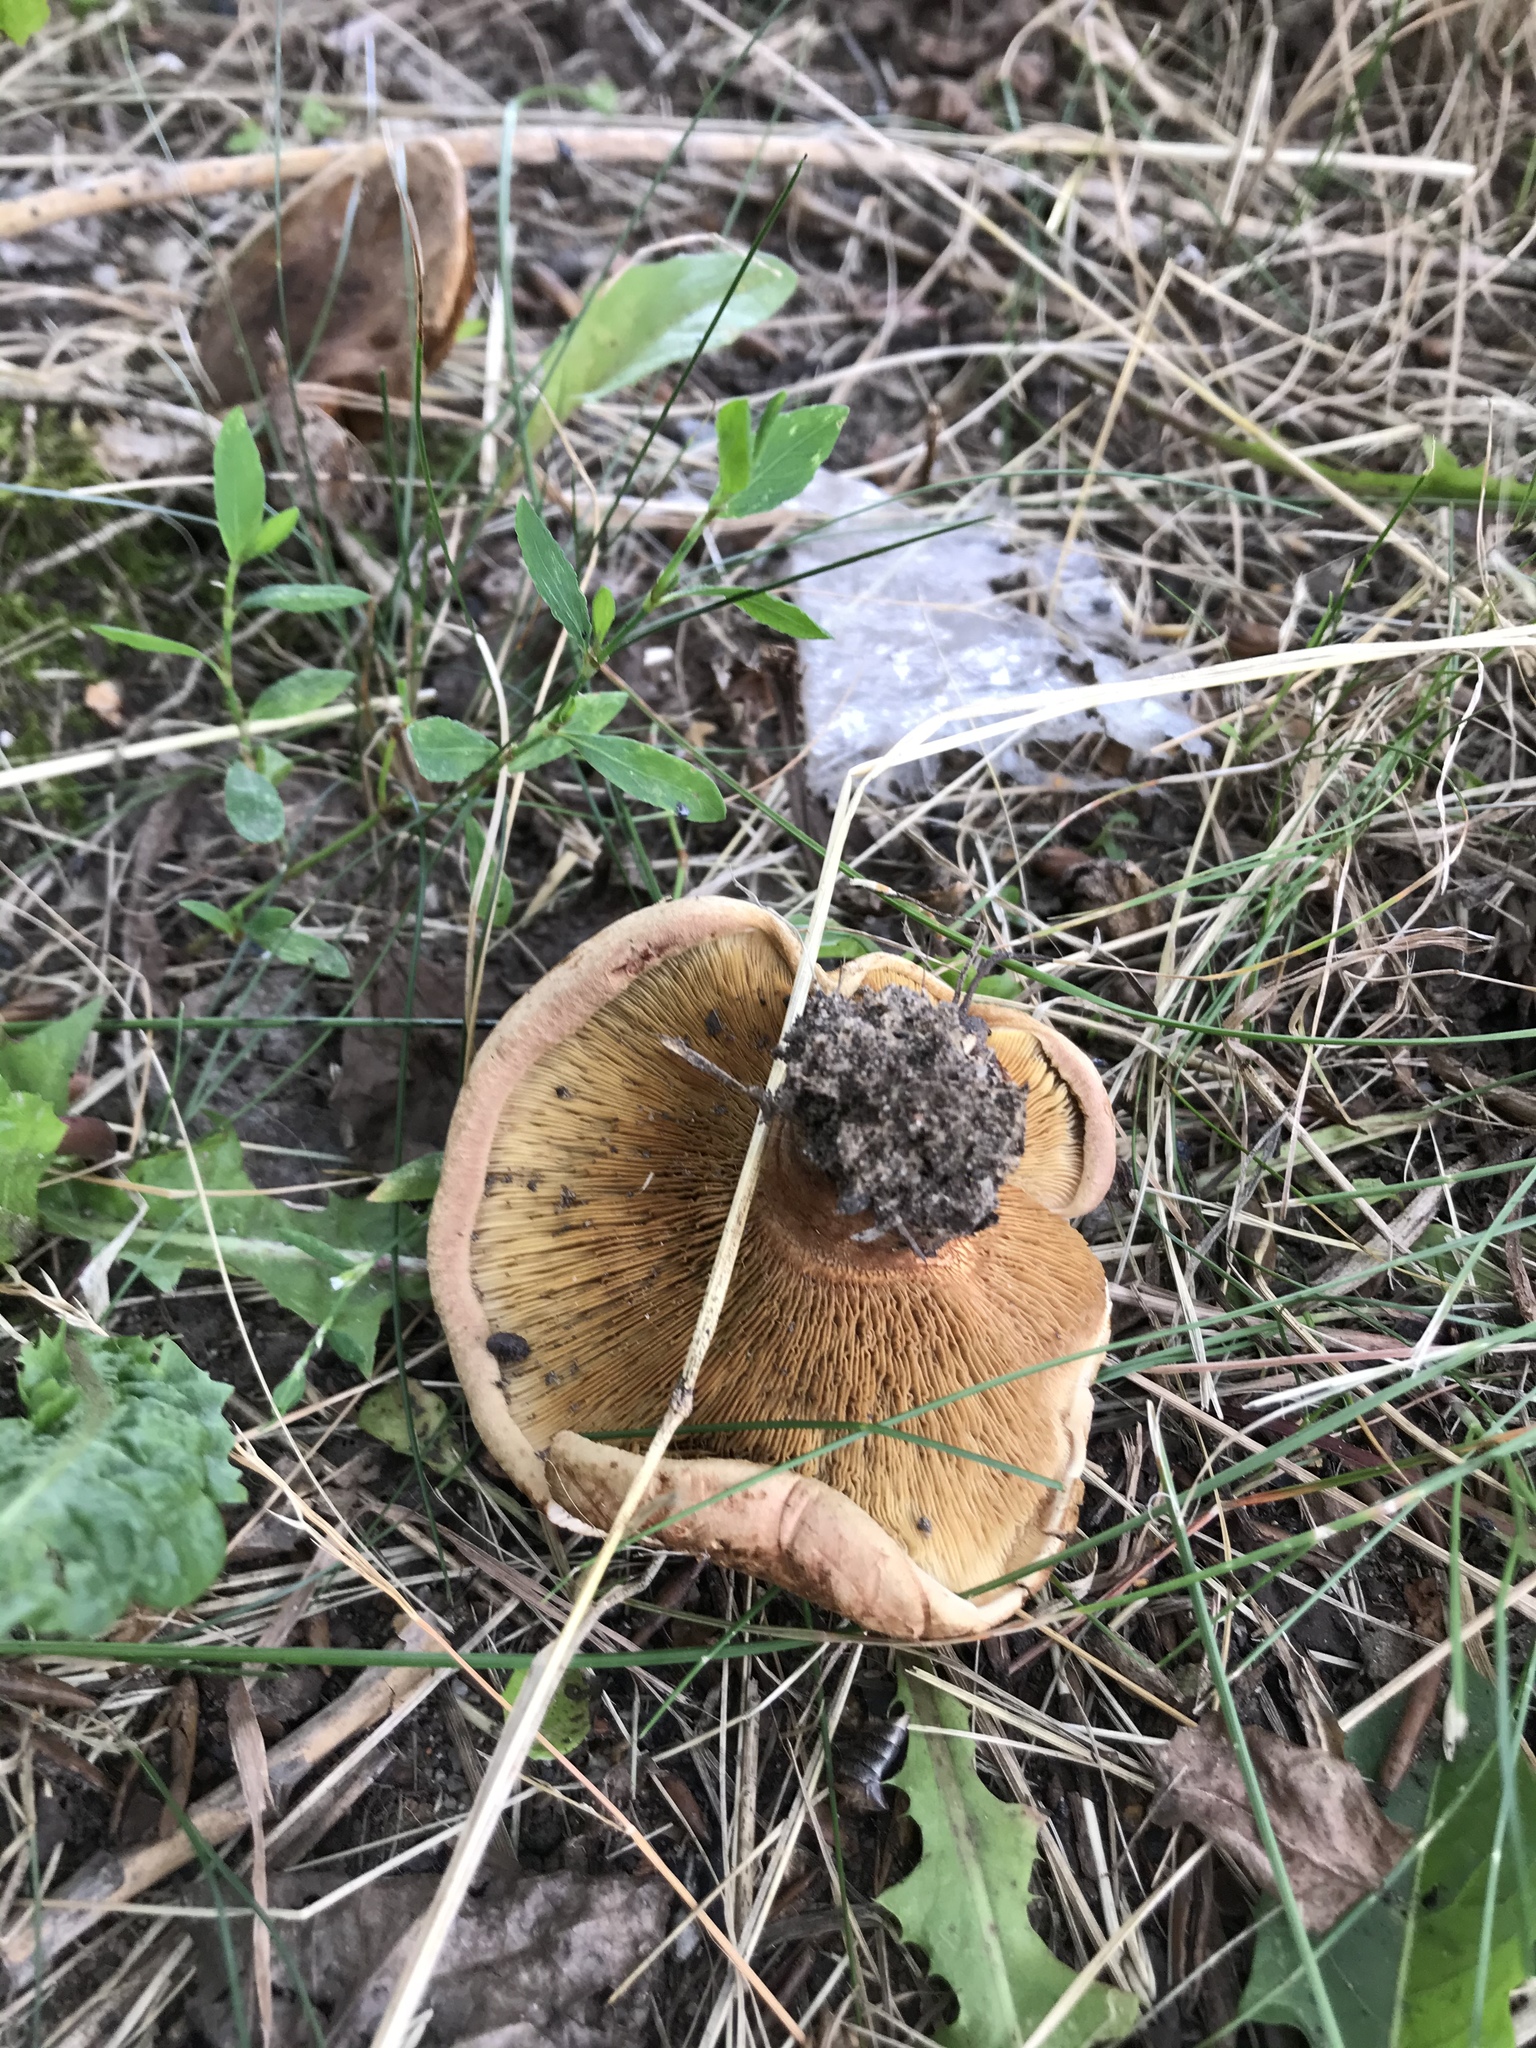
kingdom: Fungi
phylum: Basidiomycota
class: Agaricomycetes
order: Boletales
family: Paxillaceae
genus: Paxillus
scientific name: Paxillus involutus
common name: Brown roll rim
